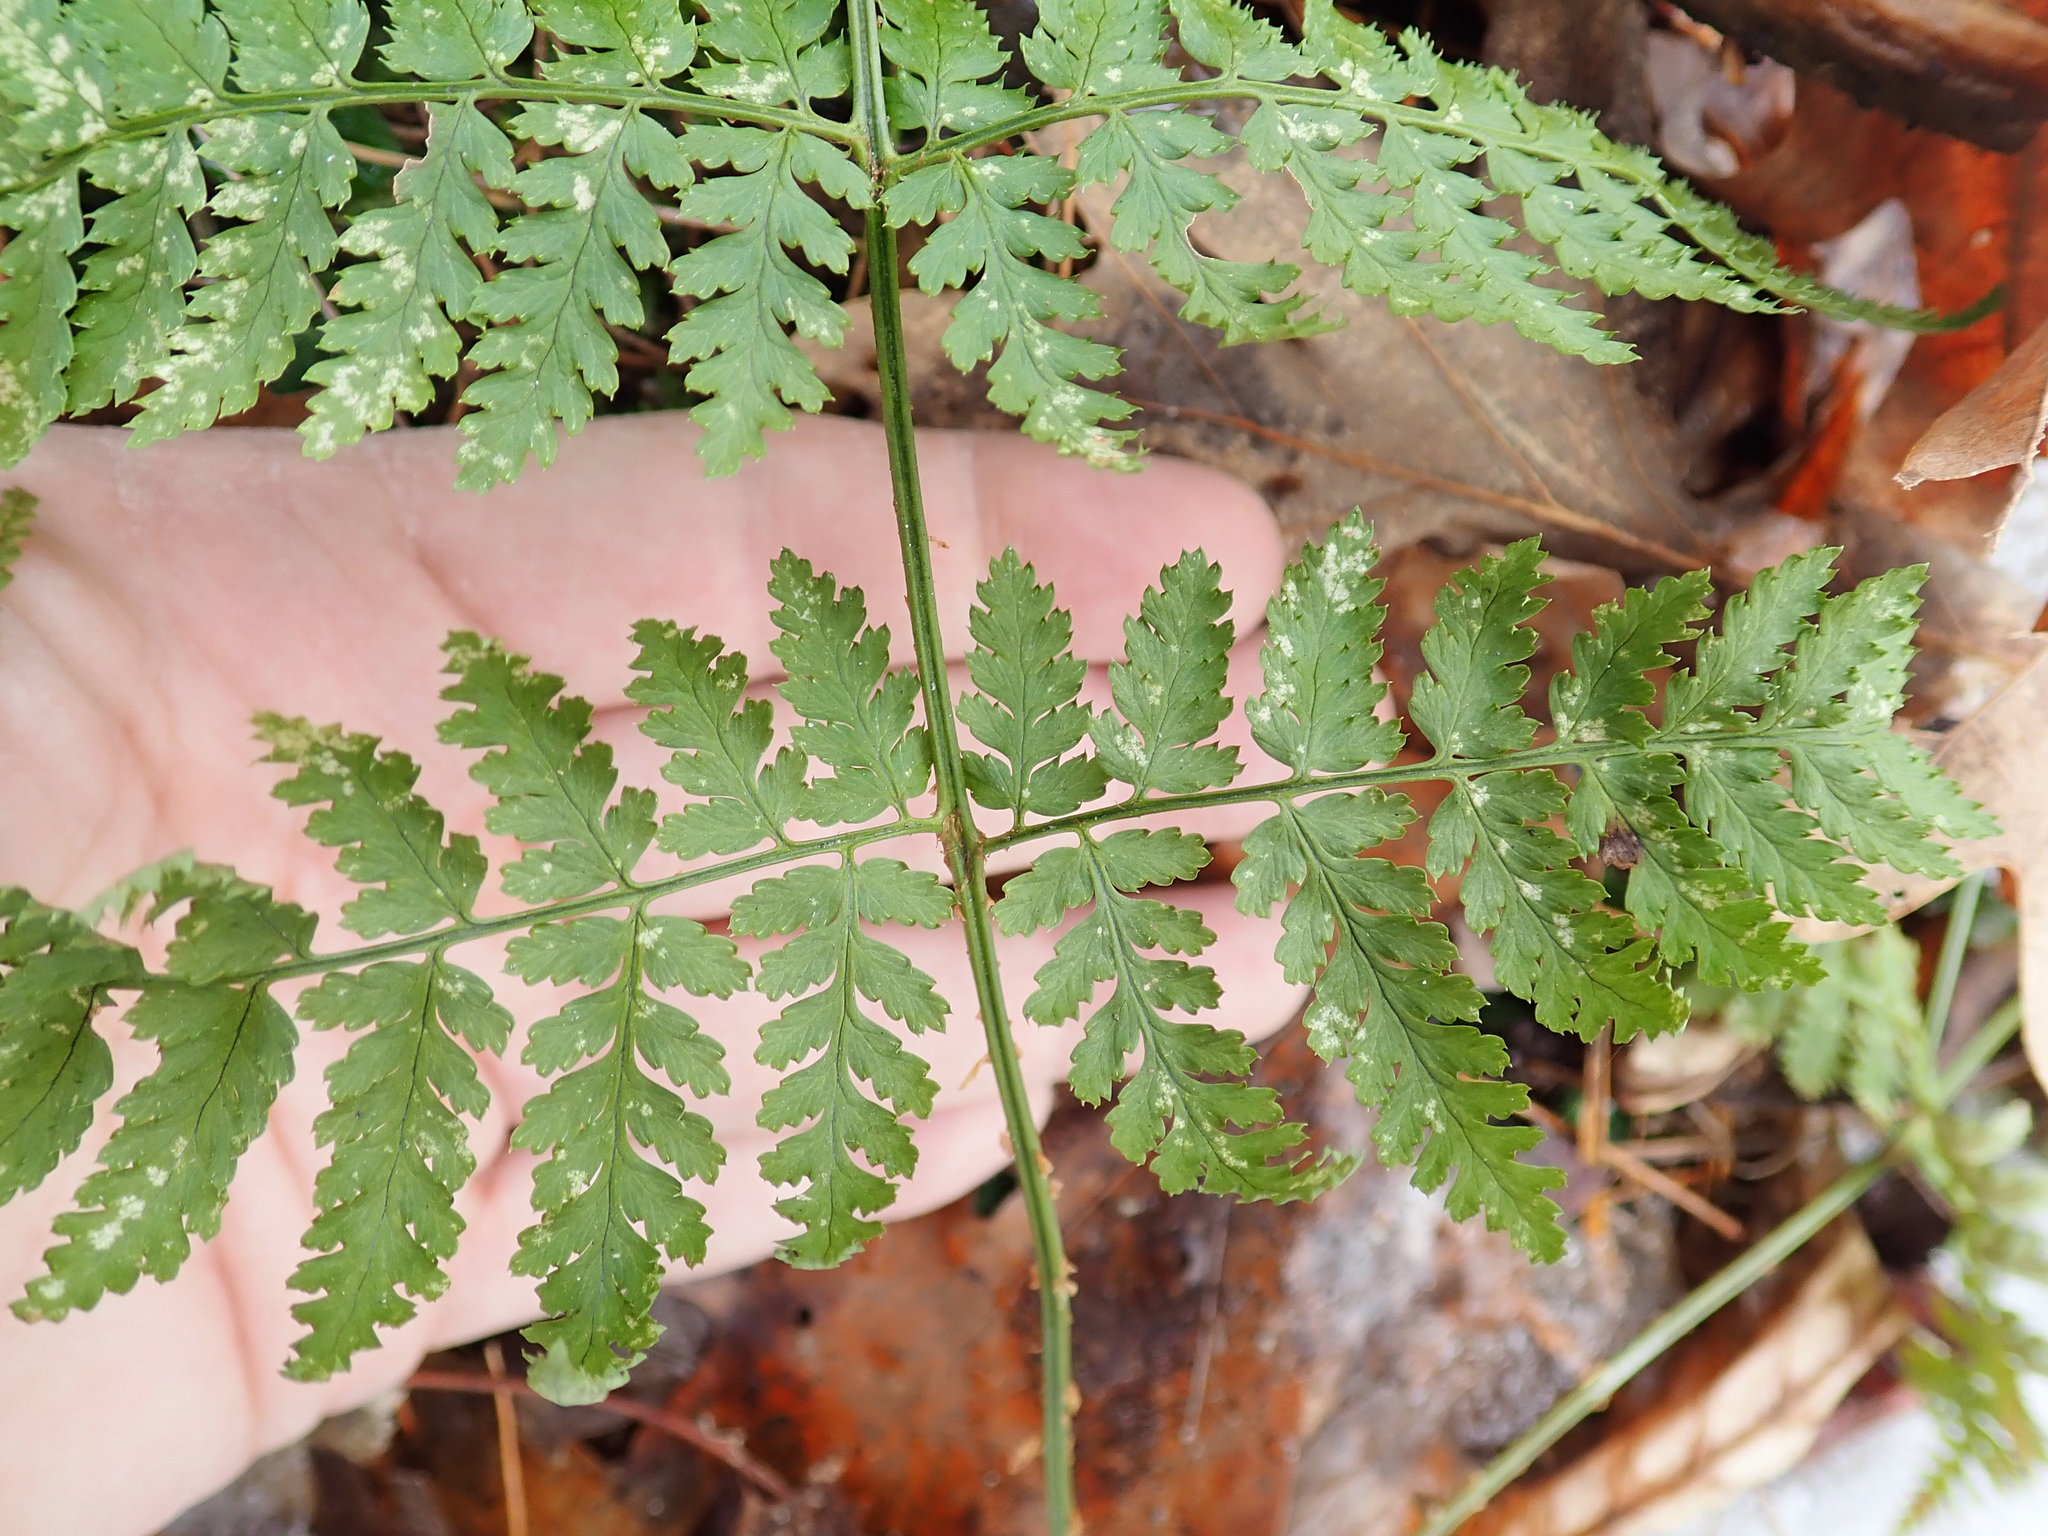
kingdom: Plantae
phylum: Tracheophyta
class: Polypodiopsida
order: Polypodiales
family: Dryopteridaceae
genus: Dryopteris
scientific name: Dryopteris intermedia
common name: Evergreen wood fern
